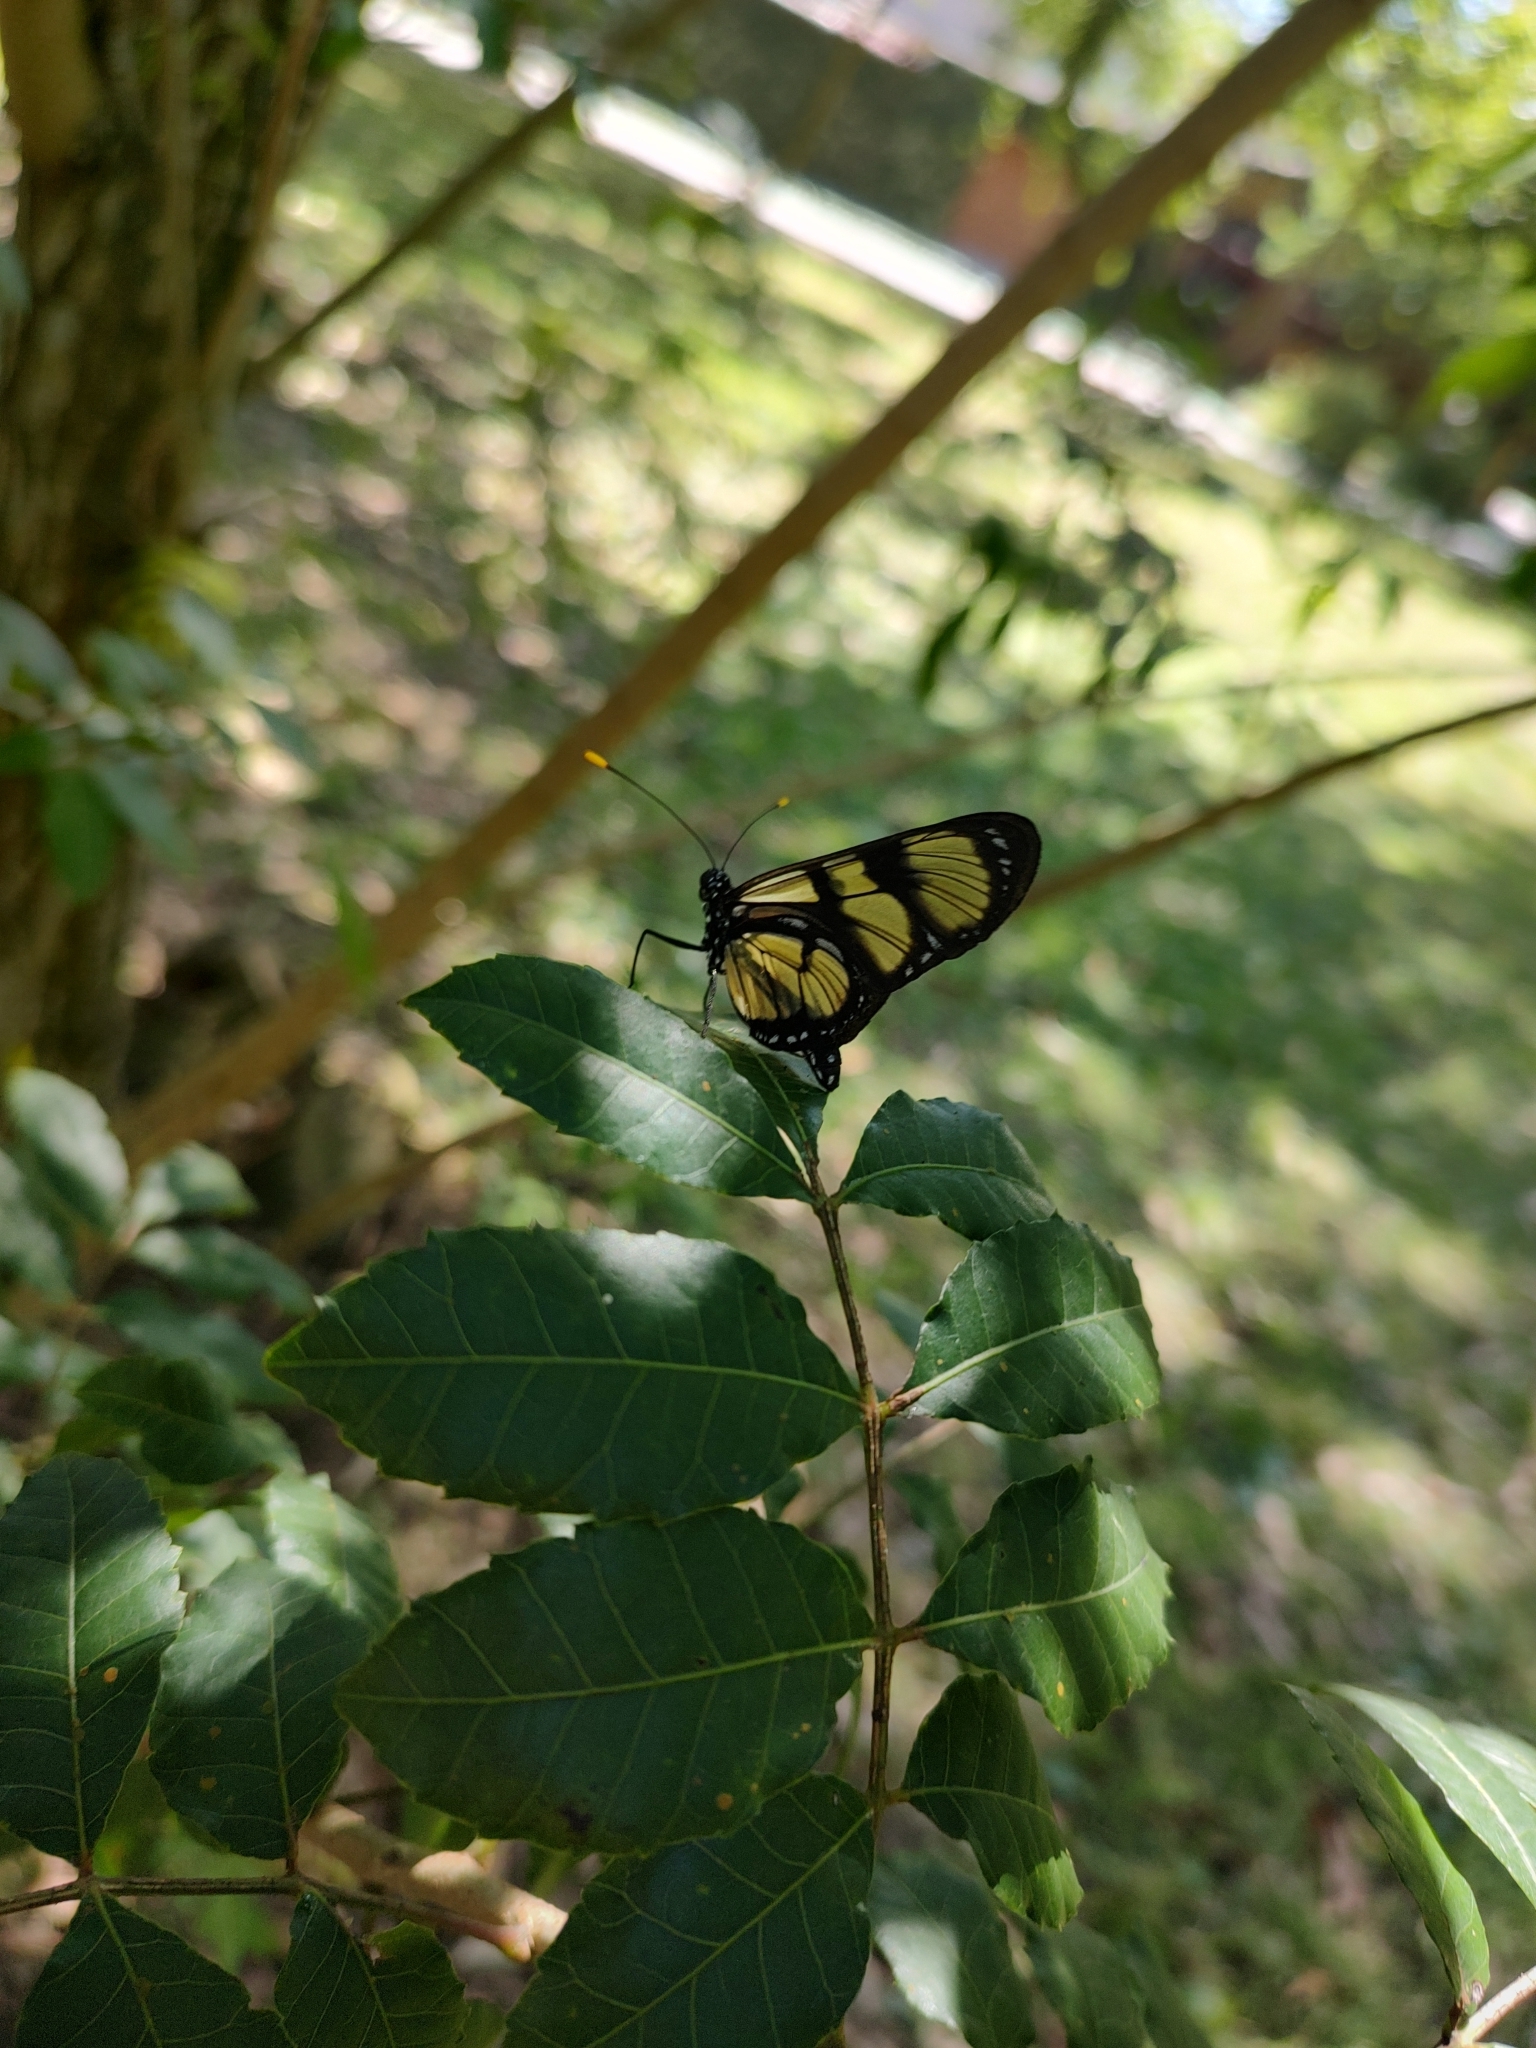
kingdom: Animalia
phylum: Arthropoda
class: Insecta
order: Lepidoptera
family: Nymphalidae
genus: Methona
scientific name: Methona themisto
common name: Themisto amberwing
